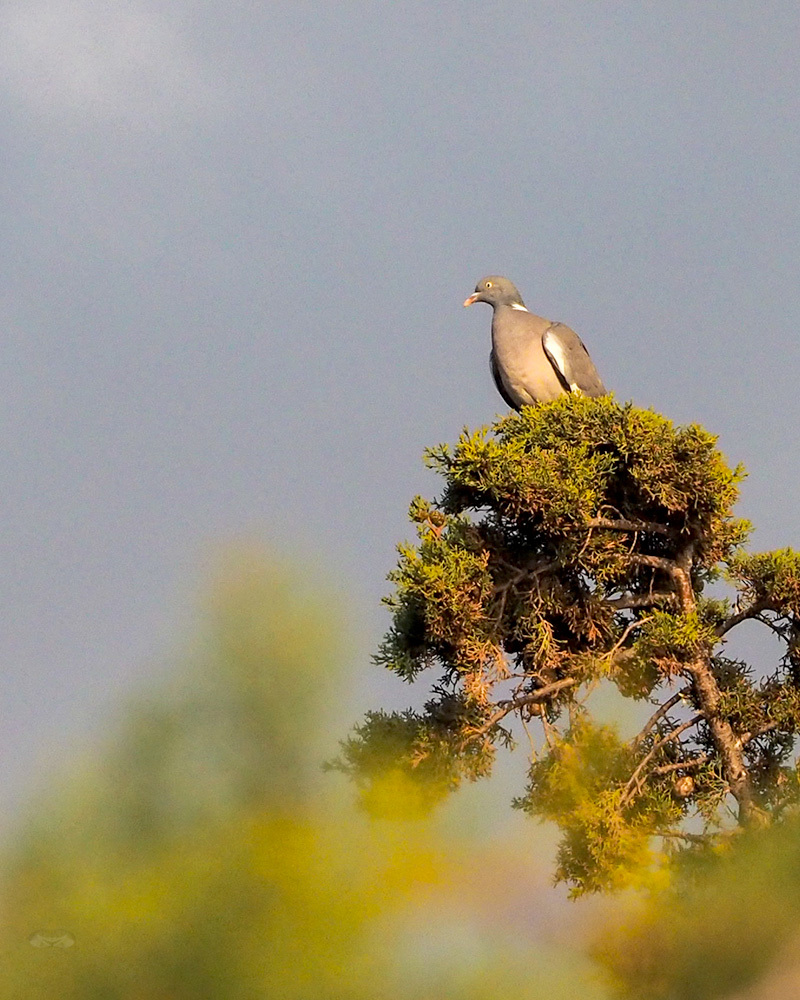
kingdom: Animalia
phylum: Chordata
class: Aves
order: Columbiformes
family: Columbidae
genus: Columba
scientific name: Columba palumbus
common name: Common wood pigeon
